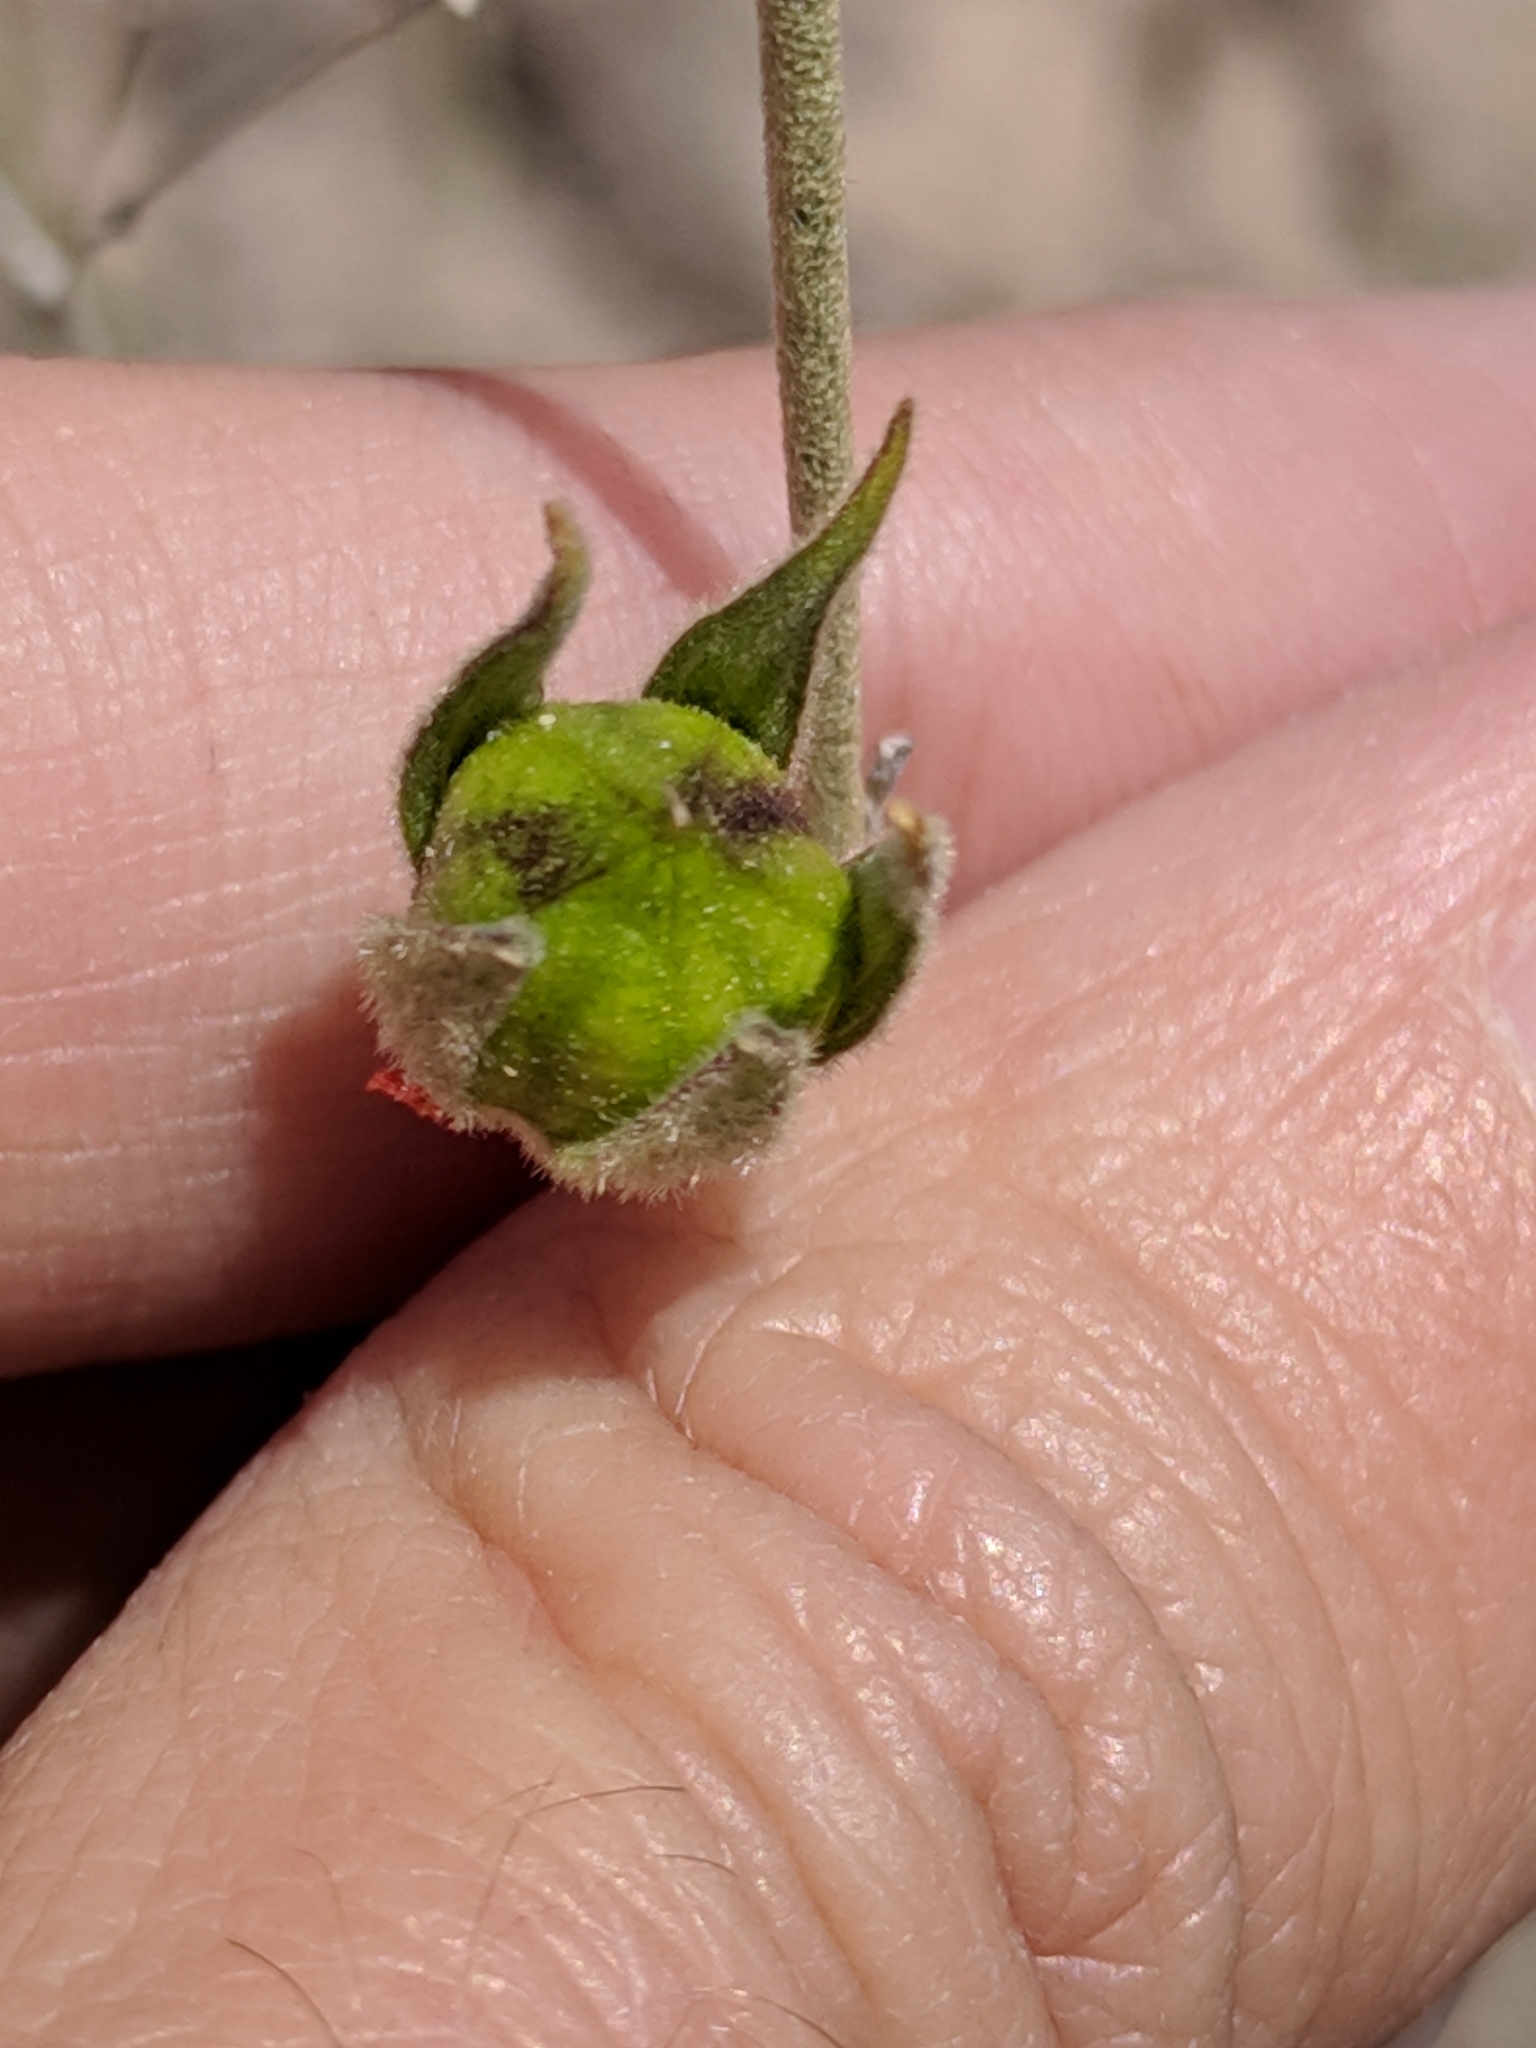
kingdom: Plantae
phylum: Tracheophyta
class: Magnoliopsida
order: Malvales
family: Malvaceae
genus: Hibiscus
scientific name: Hibiscus denudatus
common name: Paleface
